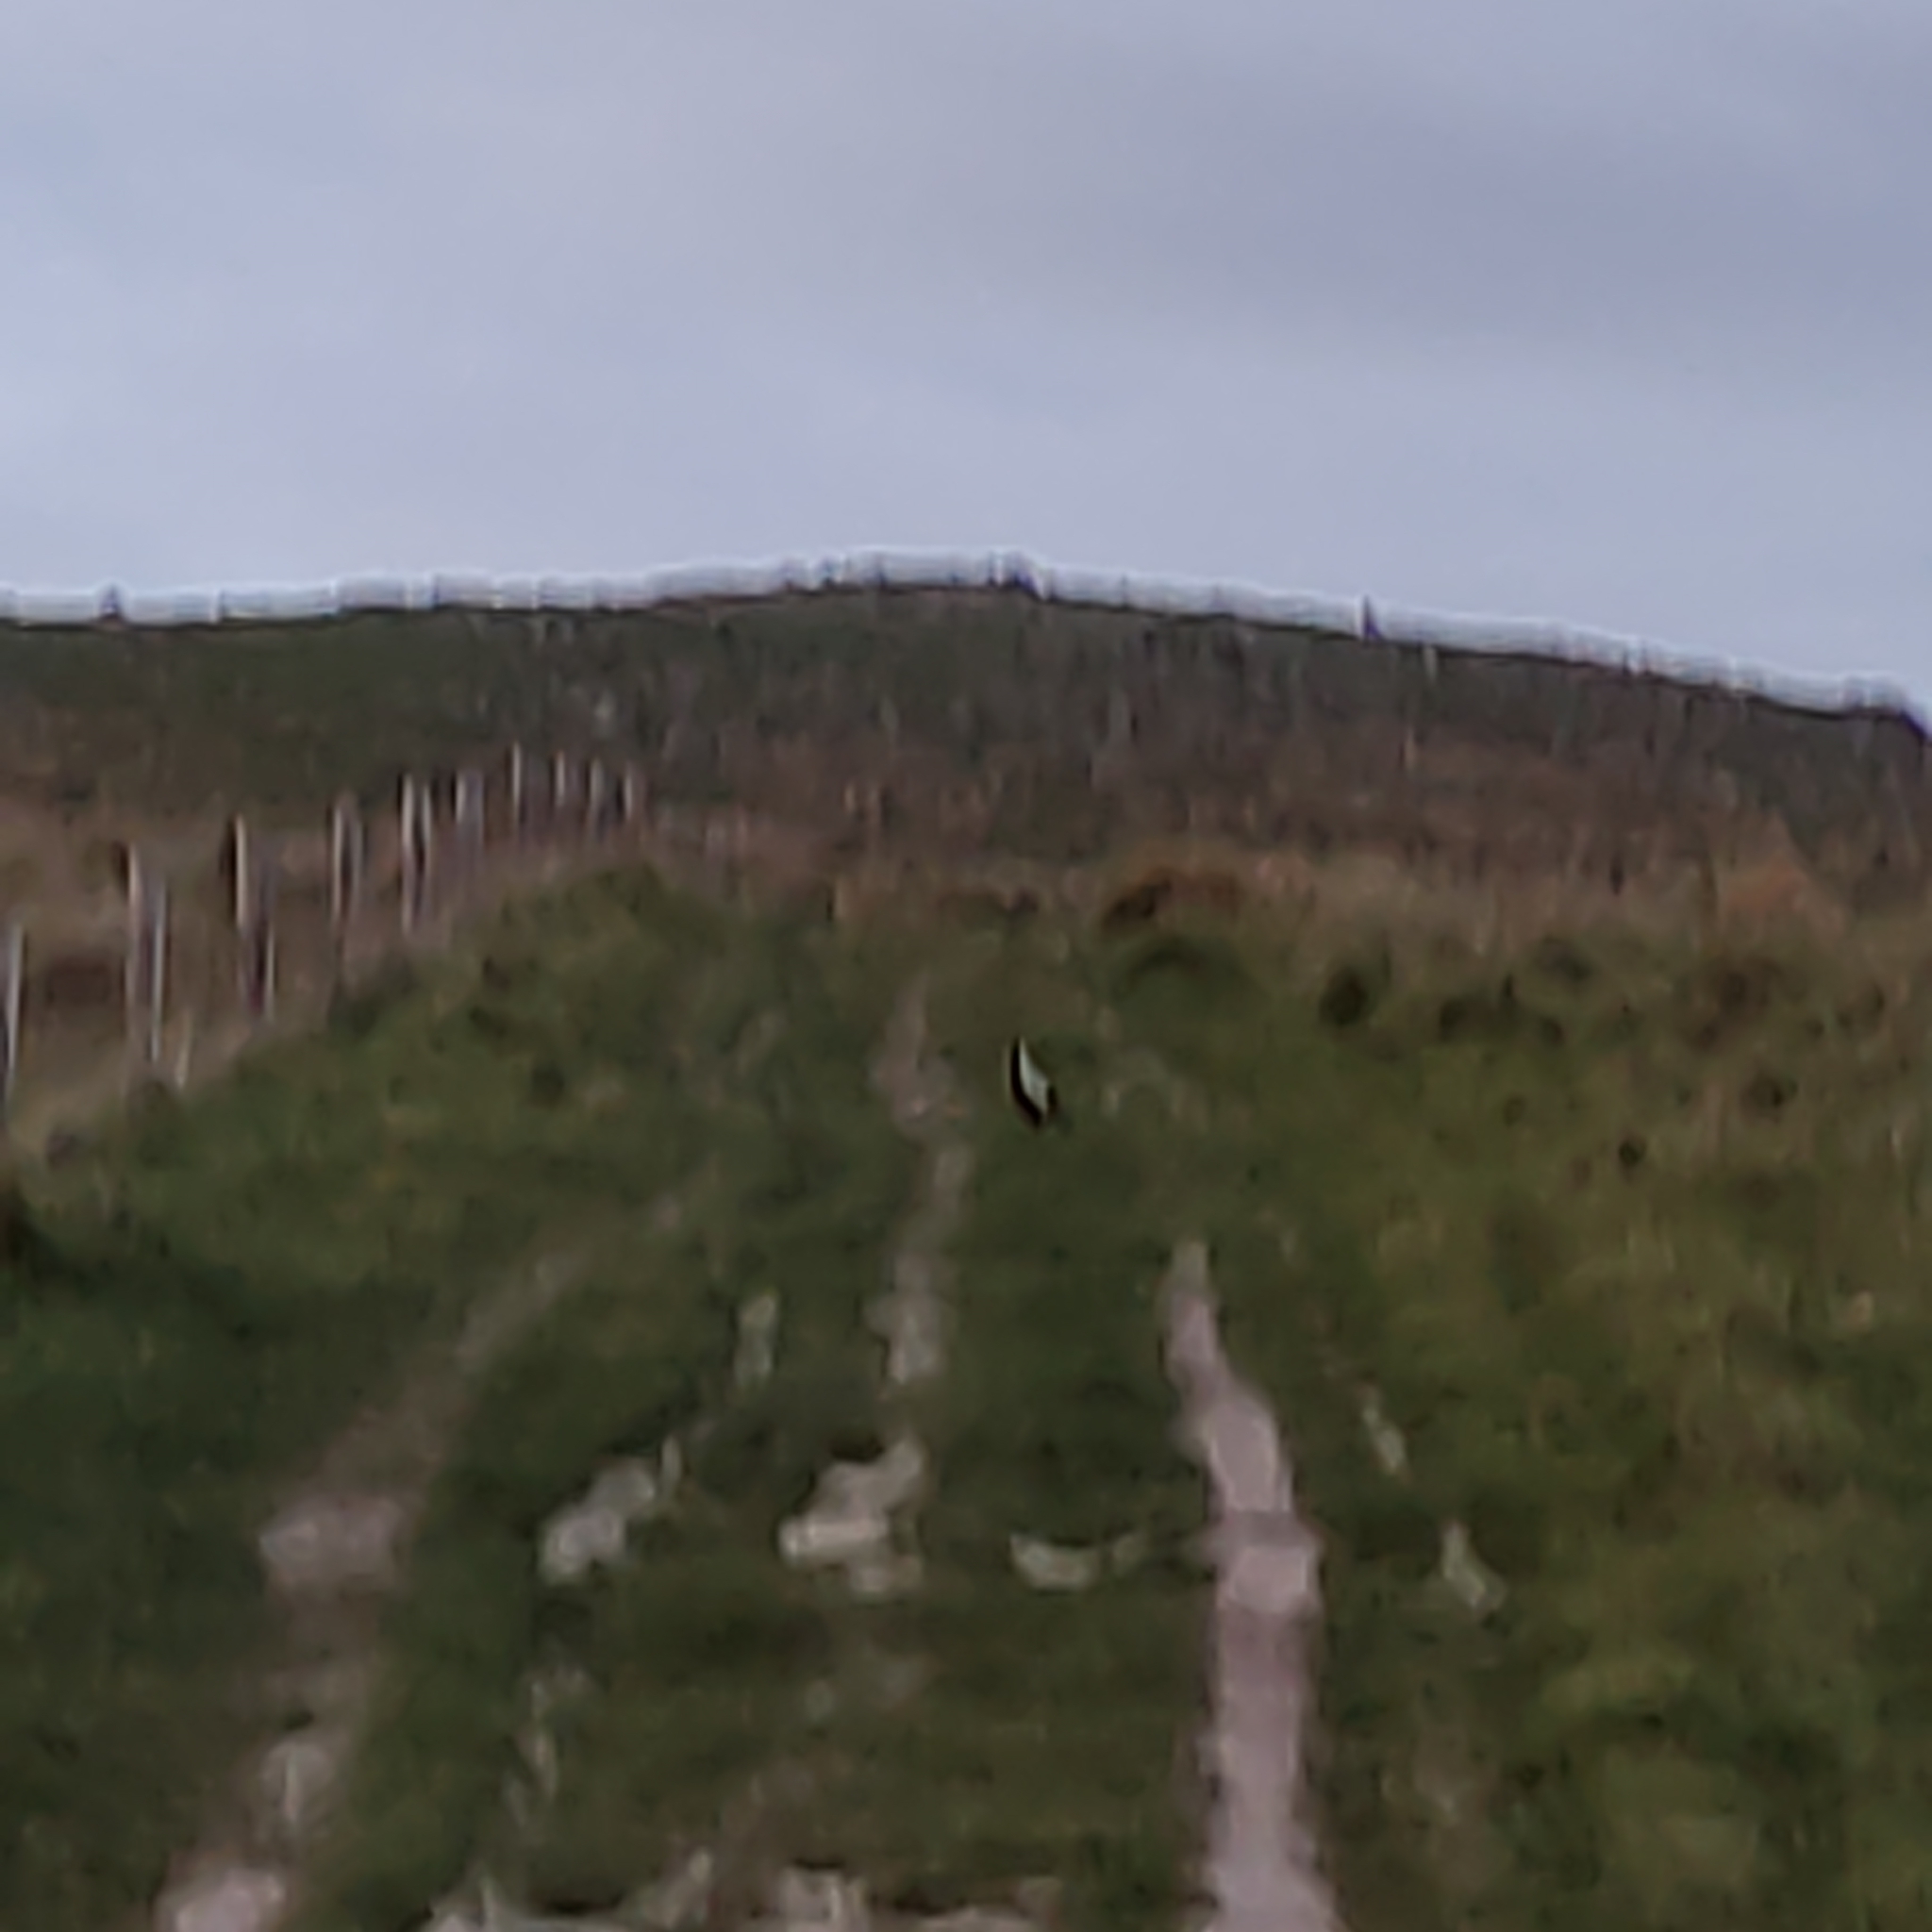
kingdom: Animalia
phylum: Chordata
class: Aves
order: Passeriformes
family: Cracticidae
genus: Gymnorhina
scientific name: Gymnorhina tibicen
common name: Australian magpie
